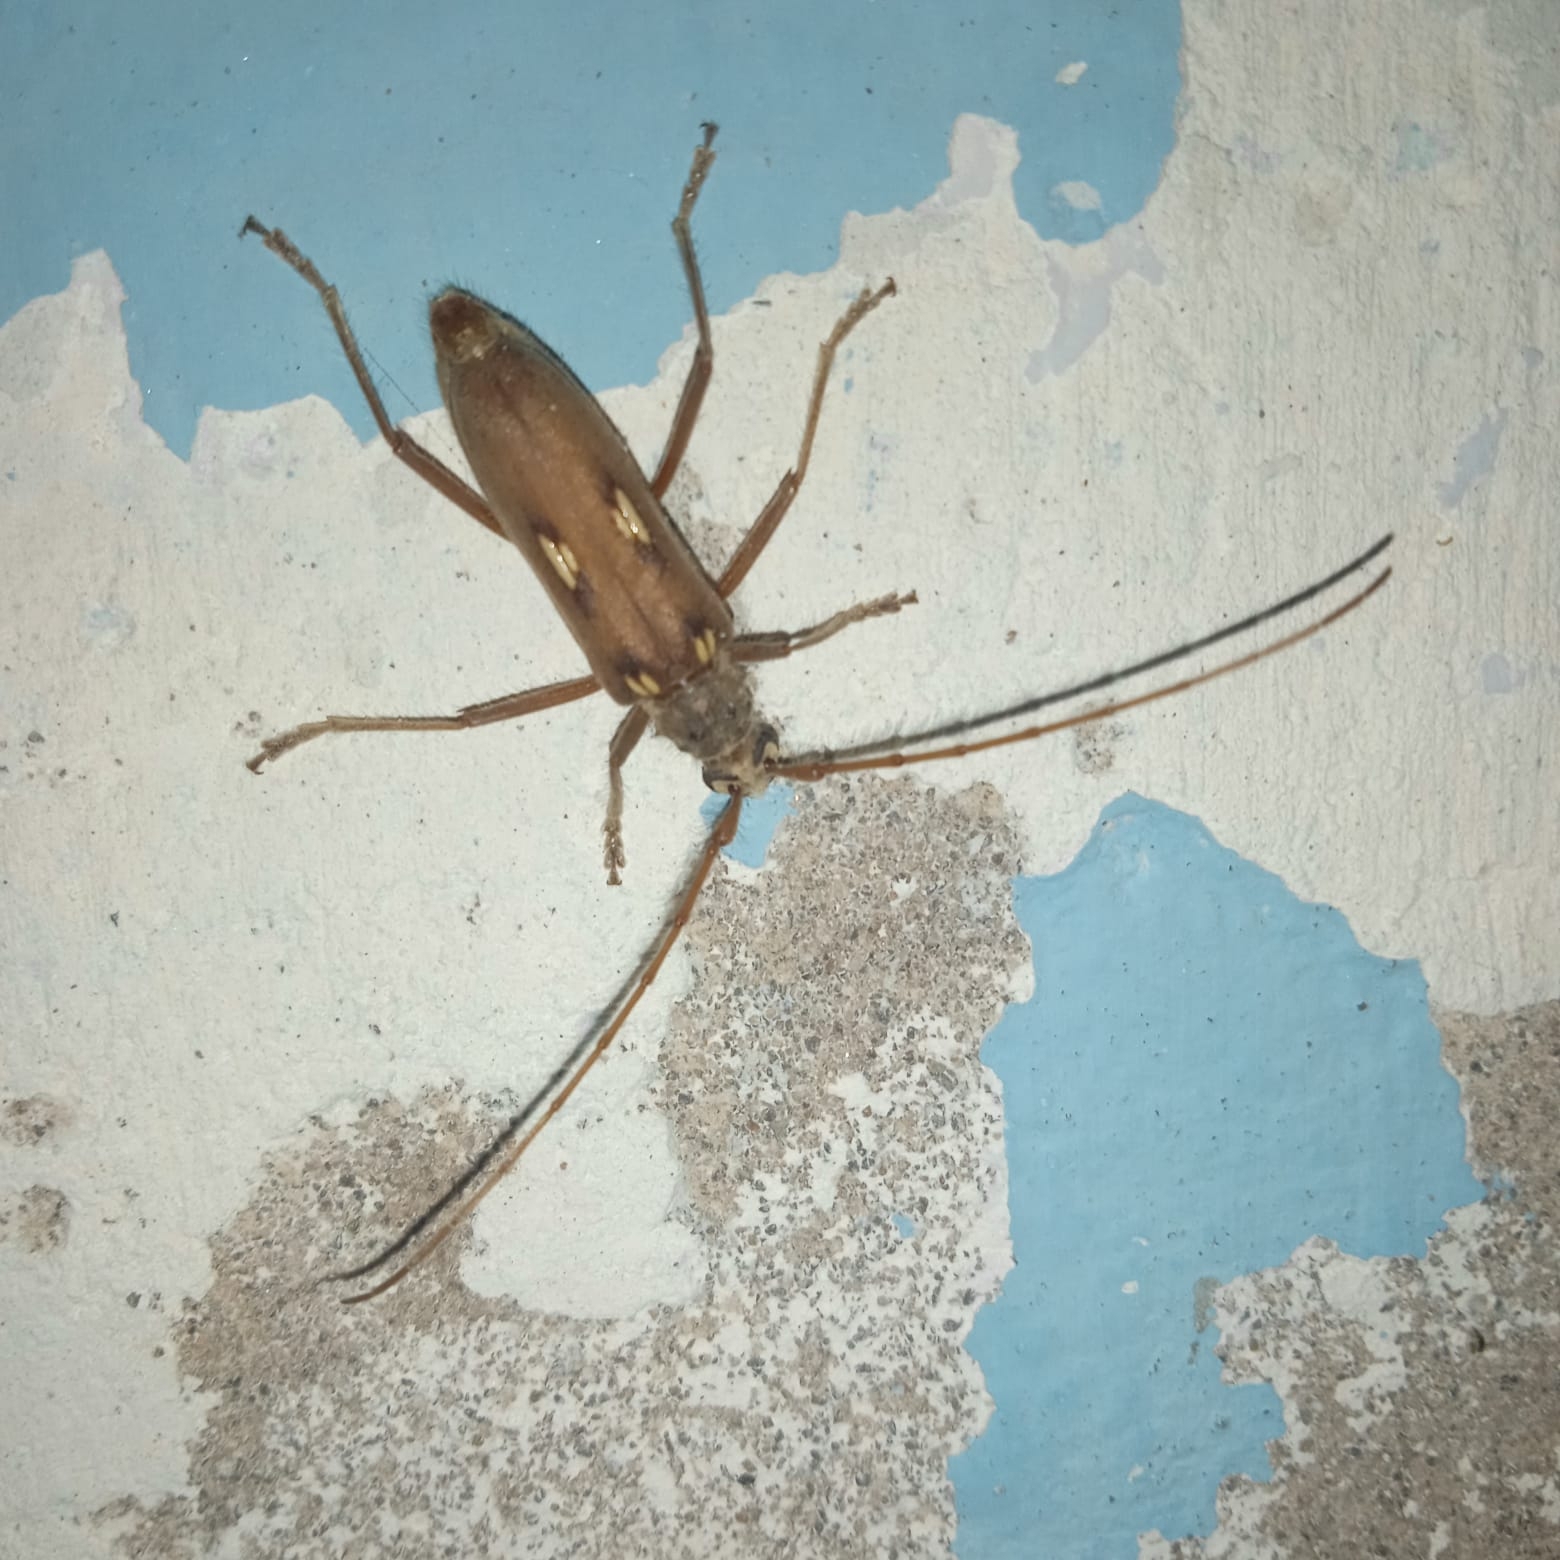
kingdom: Animalia
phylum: Arthropoda
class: Insecta
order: Coleoptera
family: Cerambycidae
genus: Eburia
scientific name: Eburia pilosa
